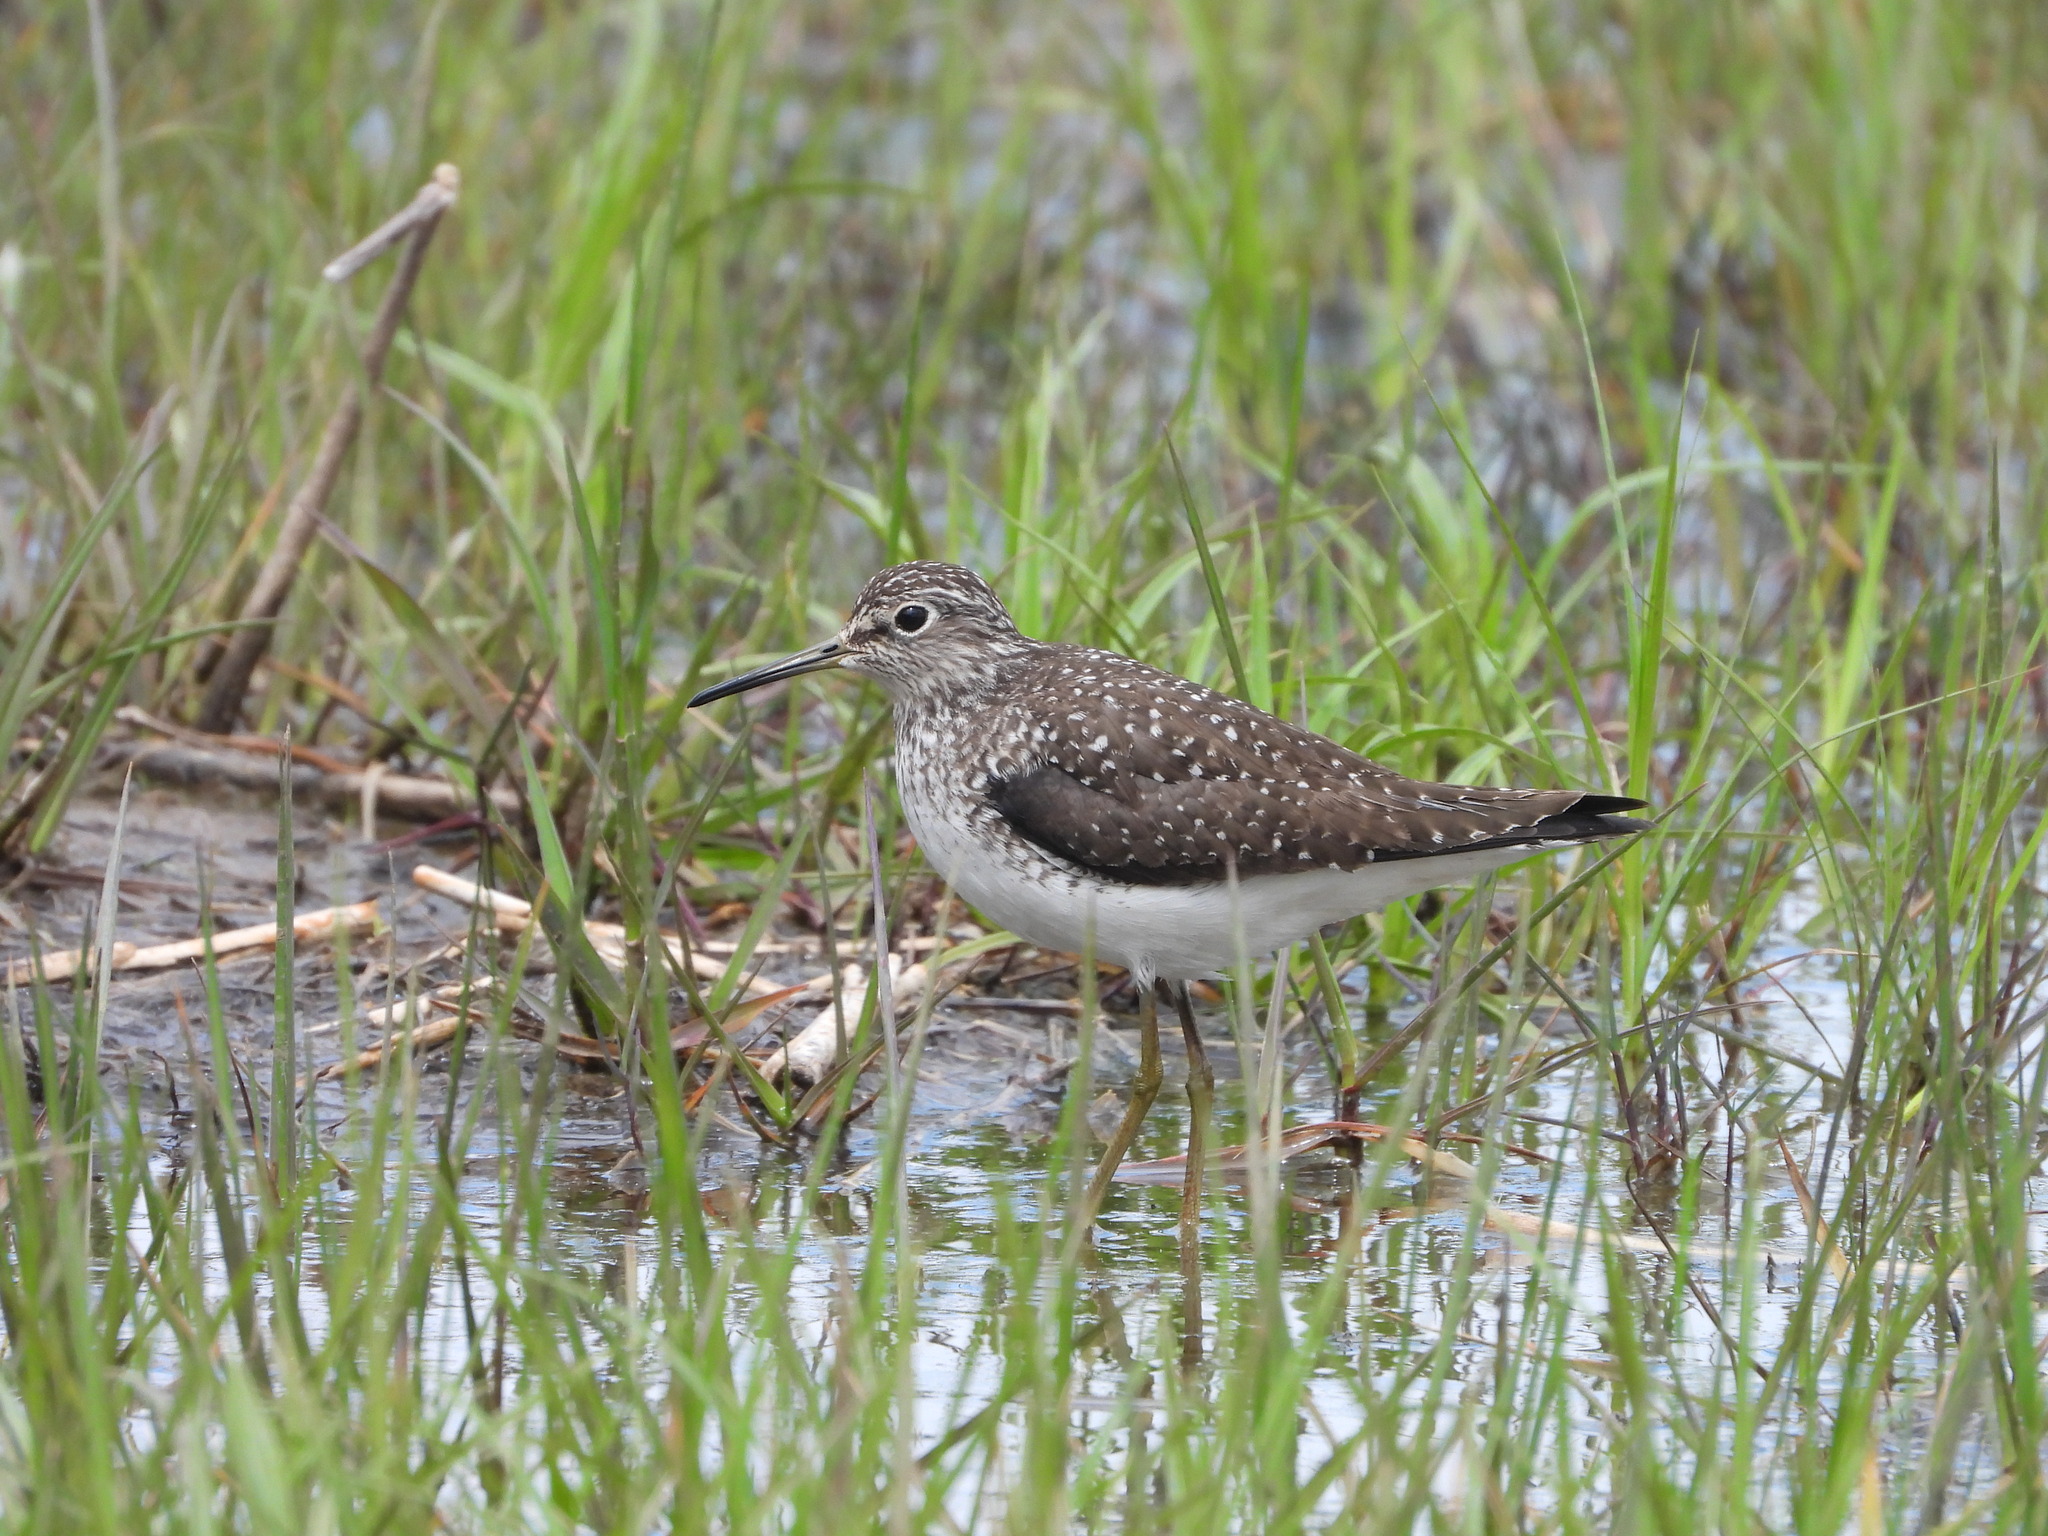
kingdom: Animalia
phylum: Chordata
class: Aves
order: Charadriiformes
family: Scolopacidae
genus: Tringa
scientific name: Tringa solitaria
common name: Solitary sandpiper
